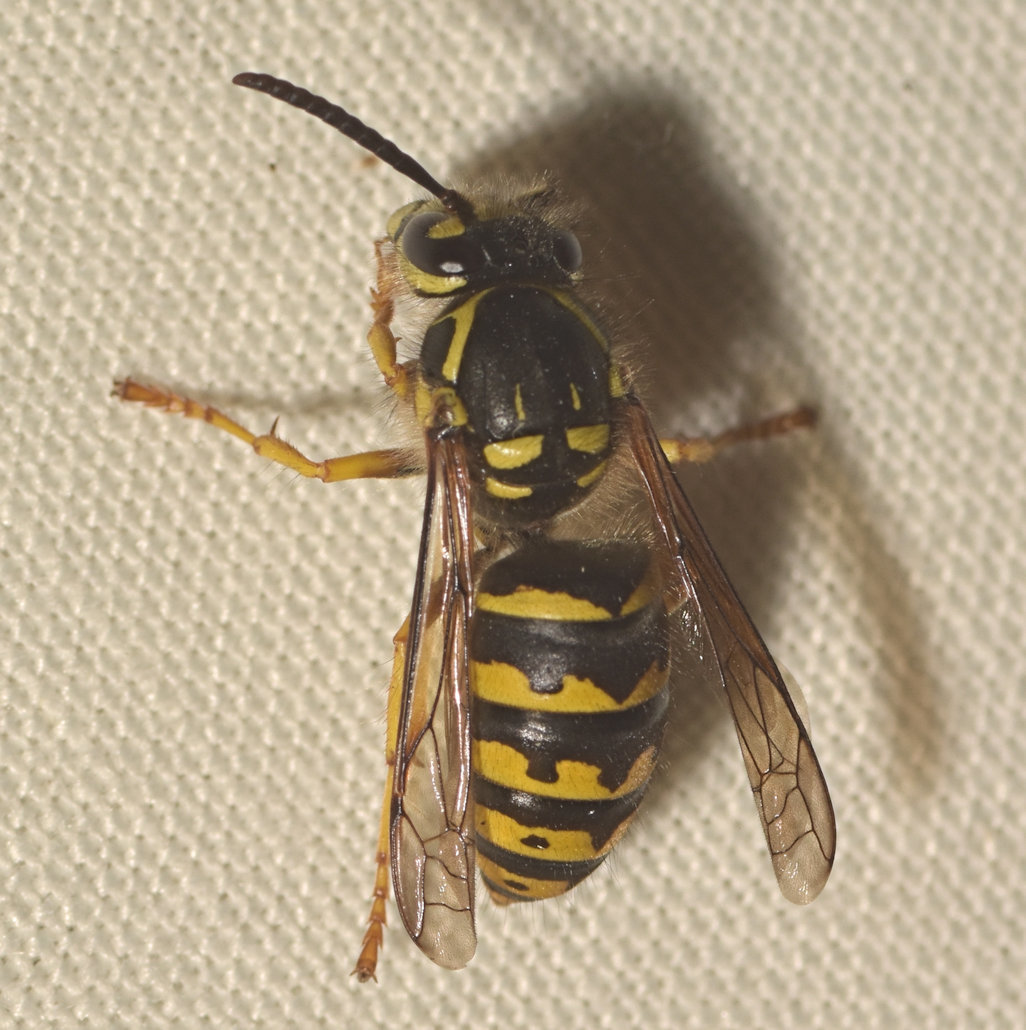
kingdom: Animalia
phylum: Arthropoda
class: Insecta
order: Hymenoptera
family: Vespidae
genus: Dolichovespula
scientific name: Dolichovespula arenaria
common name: Aerial yellowjacket
